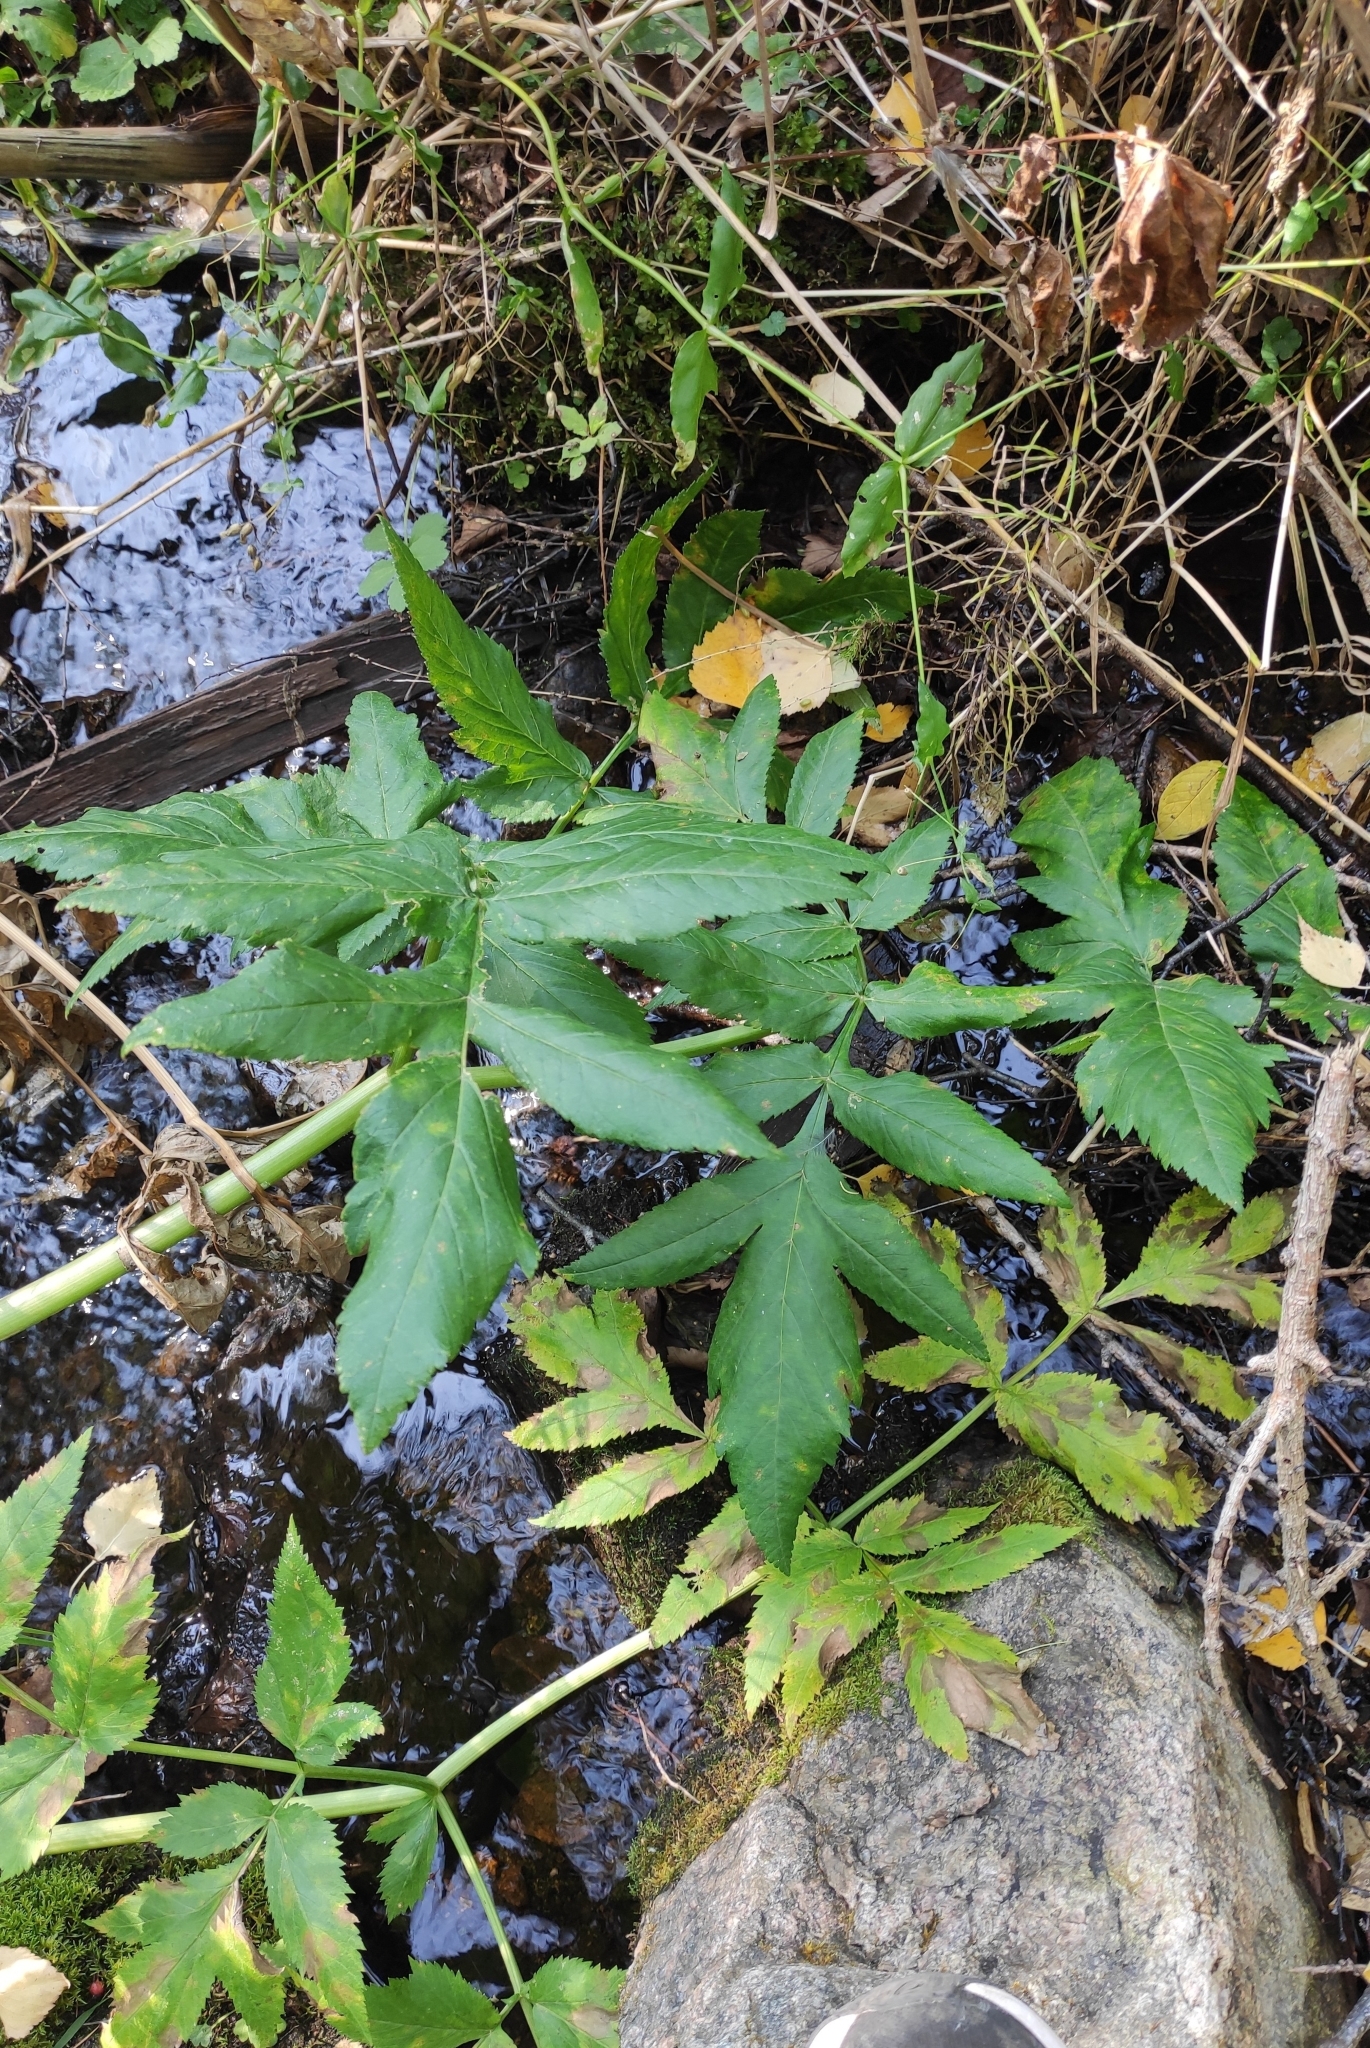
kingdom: Plantae
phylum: Tracheophyta
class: Magnoliopsida
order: Apiales
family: Apiaceae
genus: Angelica
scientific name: Angelica decurrens
